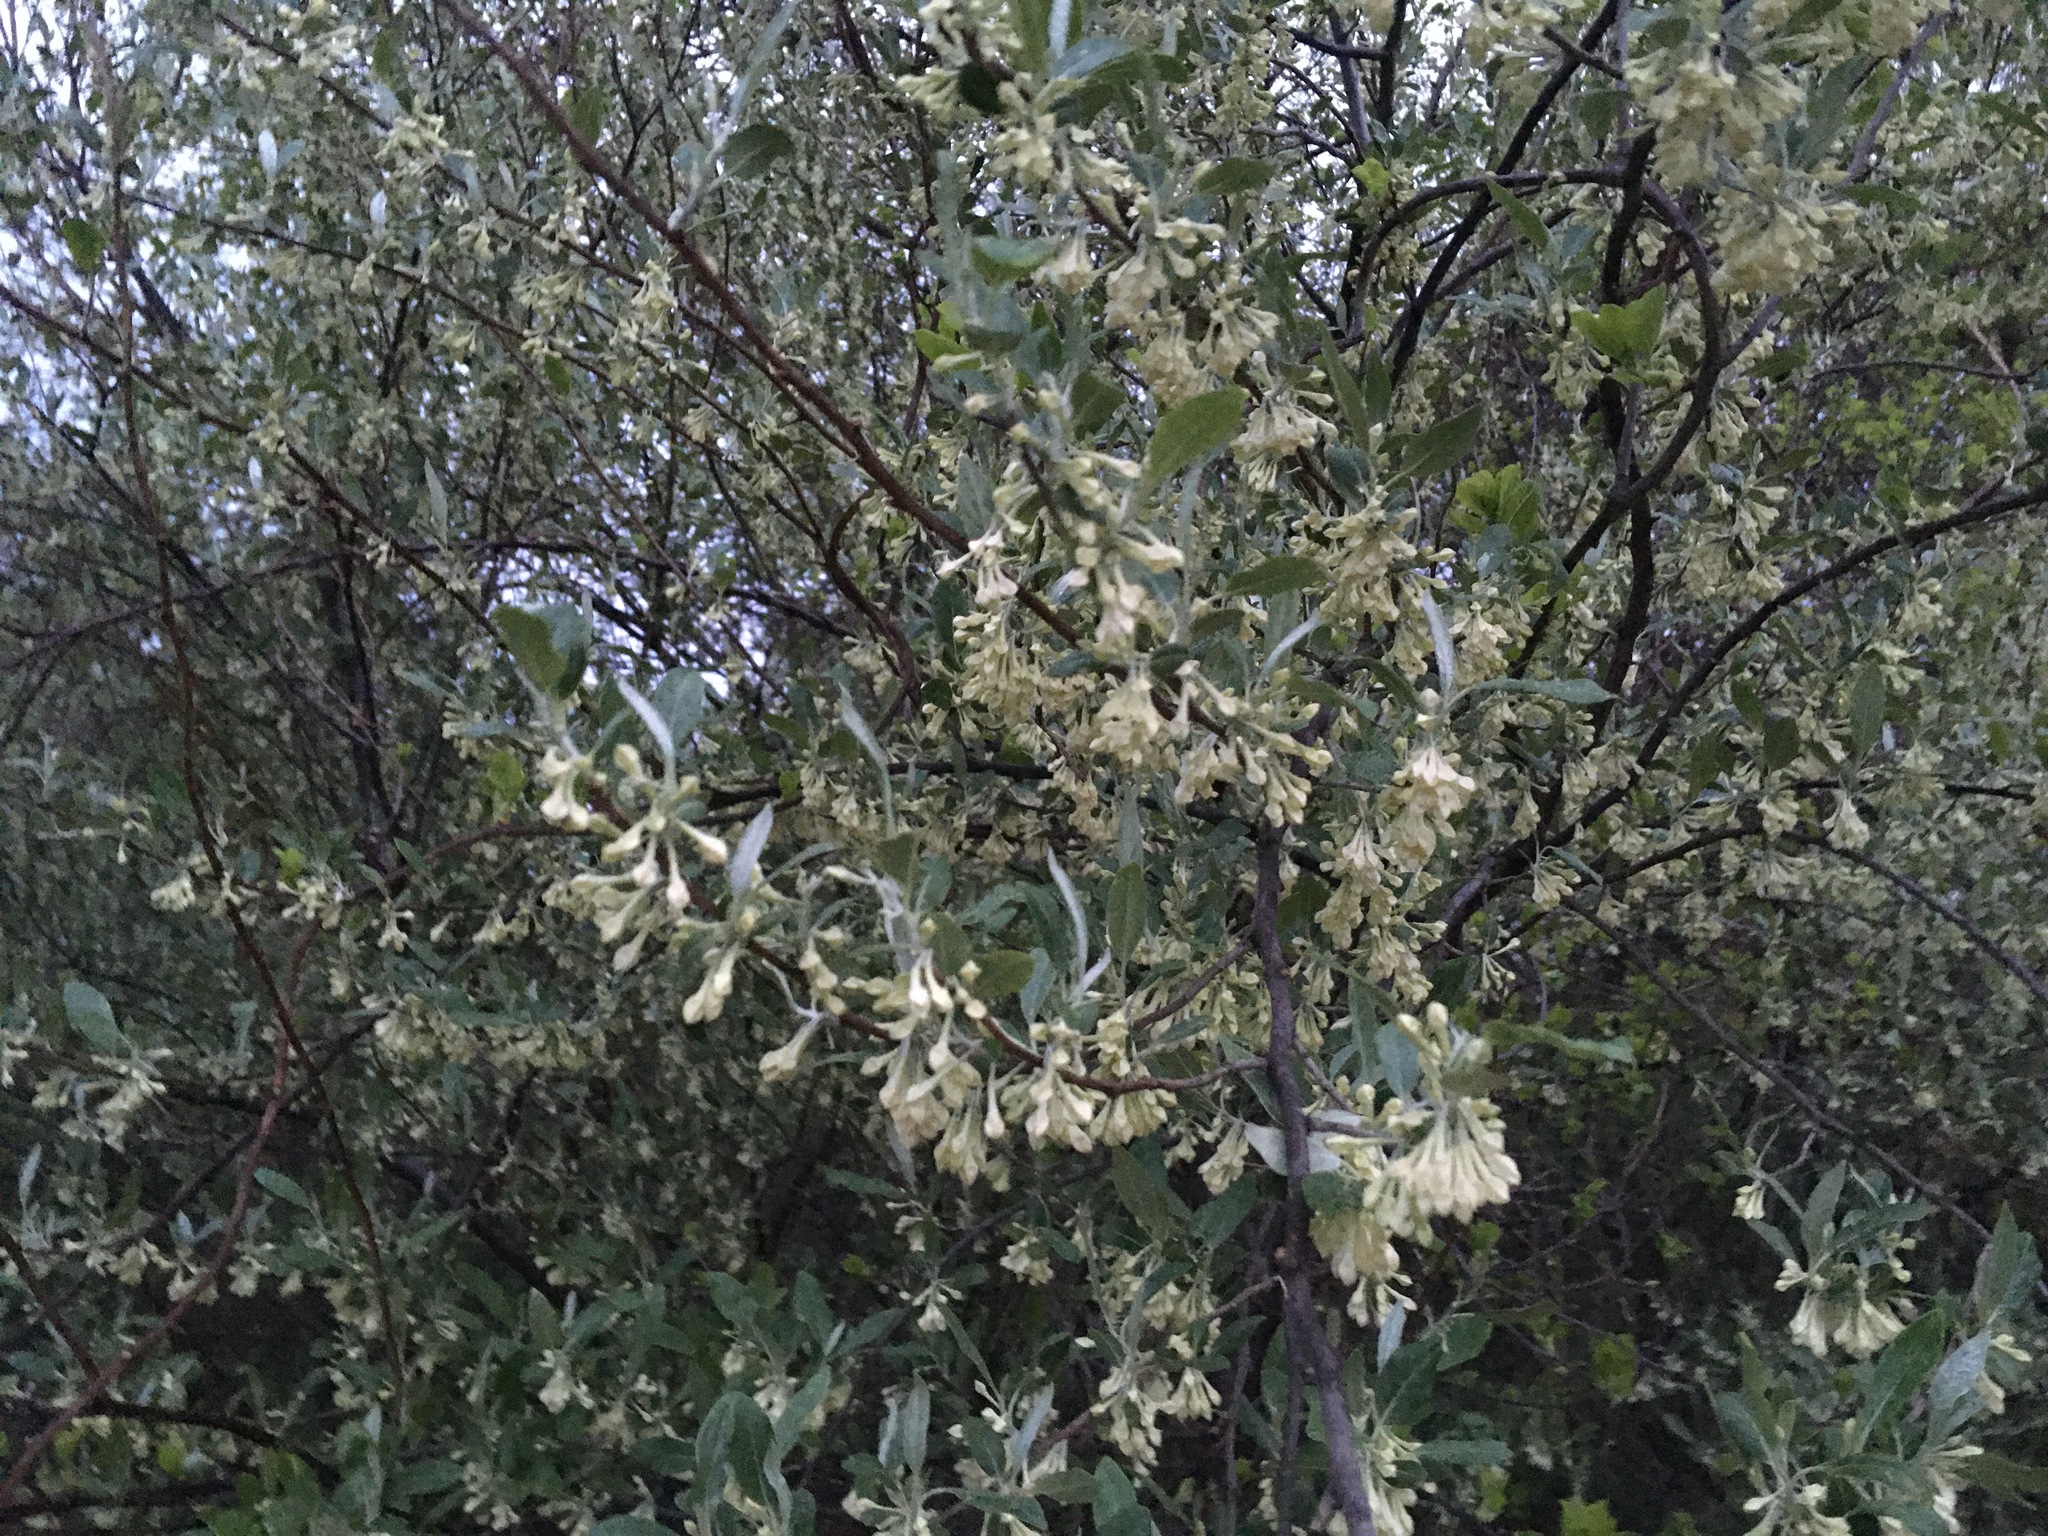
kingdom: Plantae
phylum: Tracheophyta
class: Magnoliopsida
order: Rosales
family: Elaeagnaceae
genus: Elaeagnus
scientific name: Elaeagnus umbellata
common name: Autumn olive
